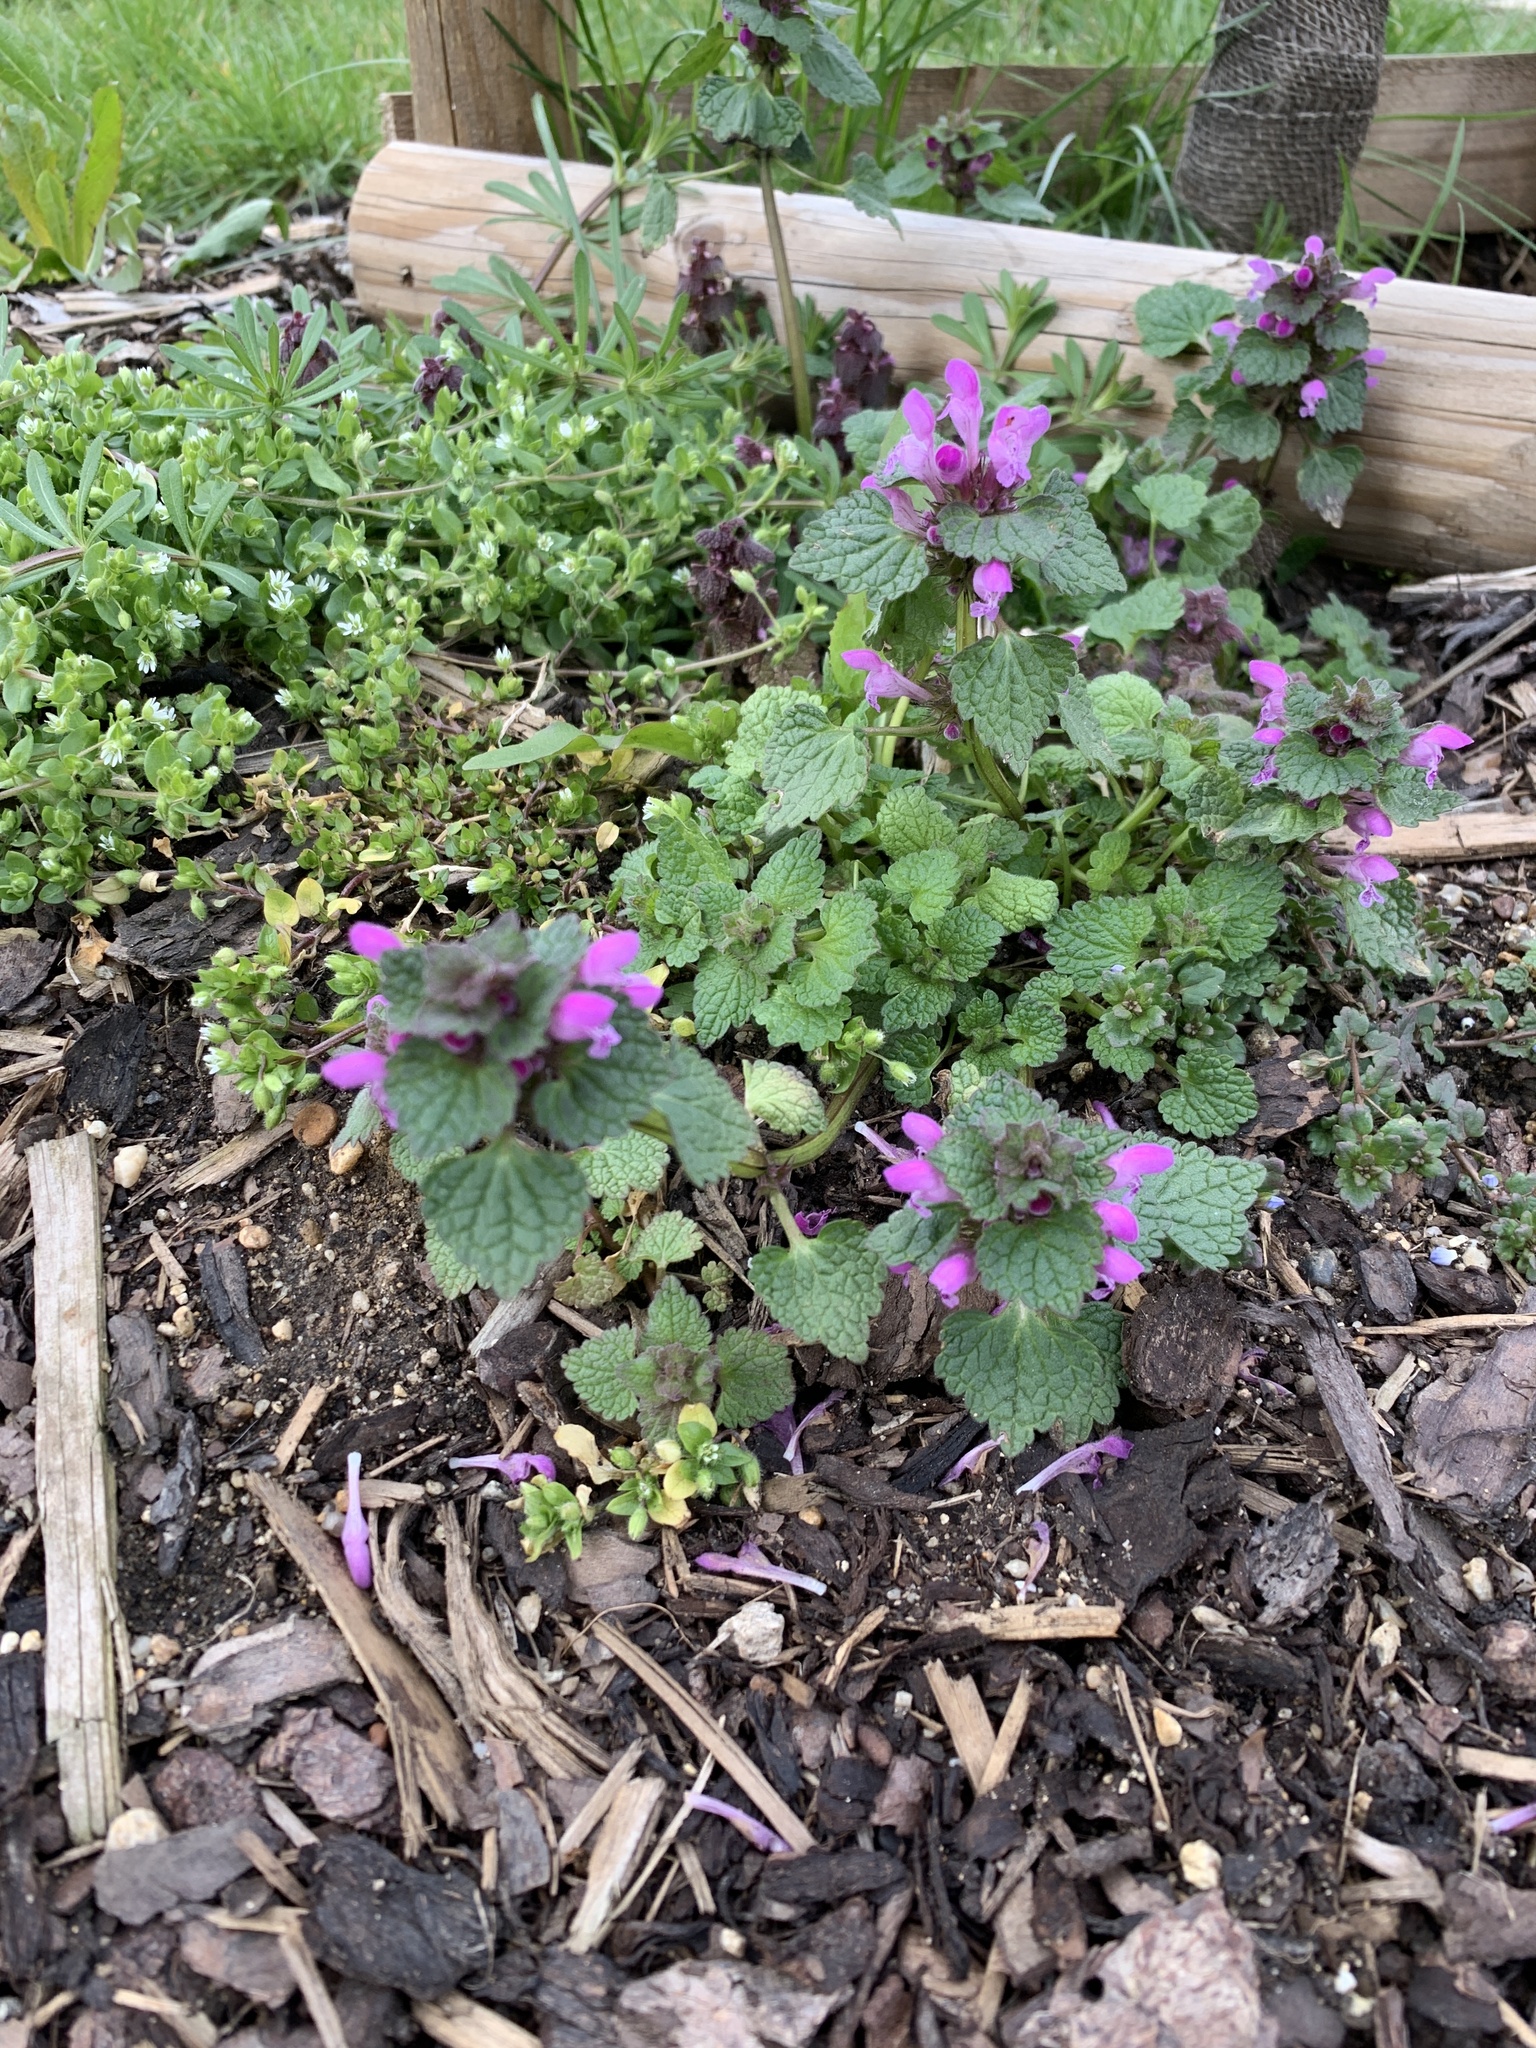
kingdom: Plantae
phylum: Tracheophyta
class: Magnoliopsida
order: Lamiales
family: Lamiaceae
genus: Lamium
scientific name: Lamium purpureum
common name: Red dead-nettle
